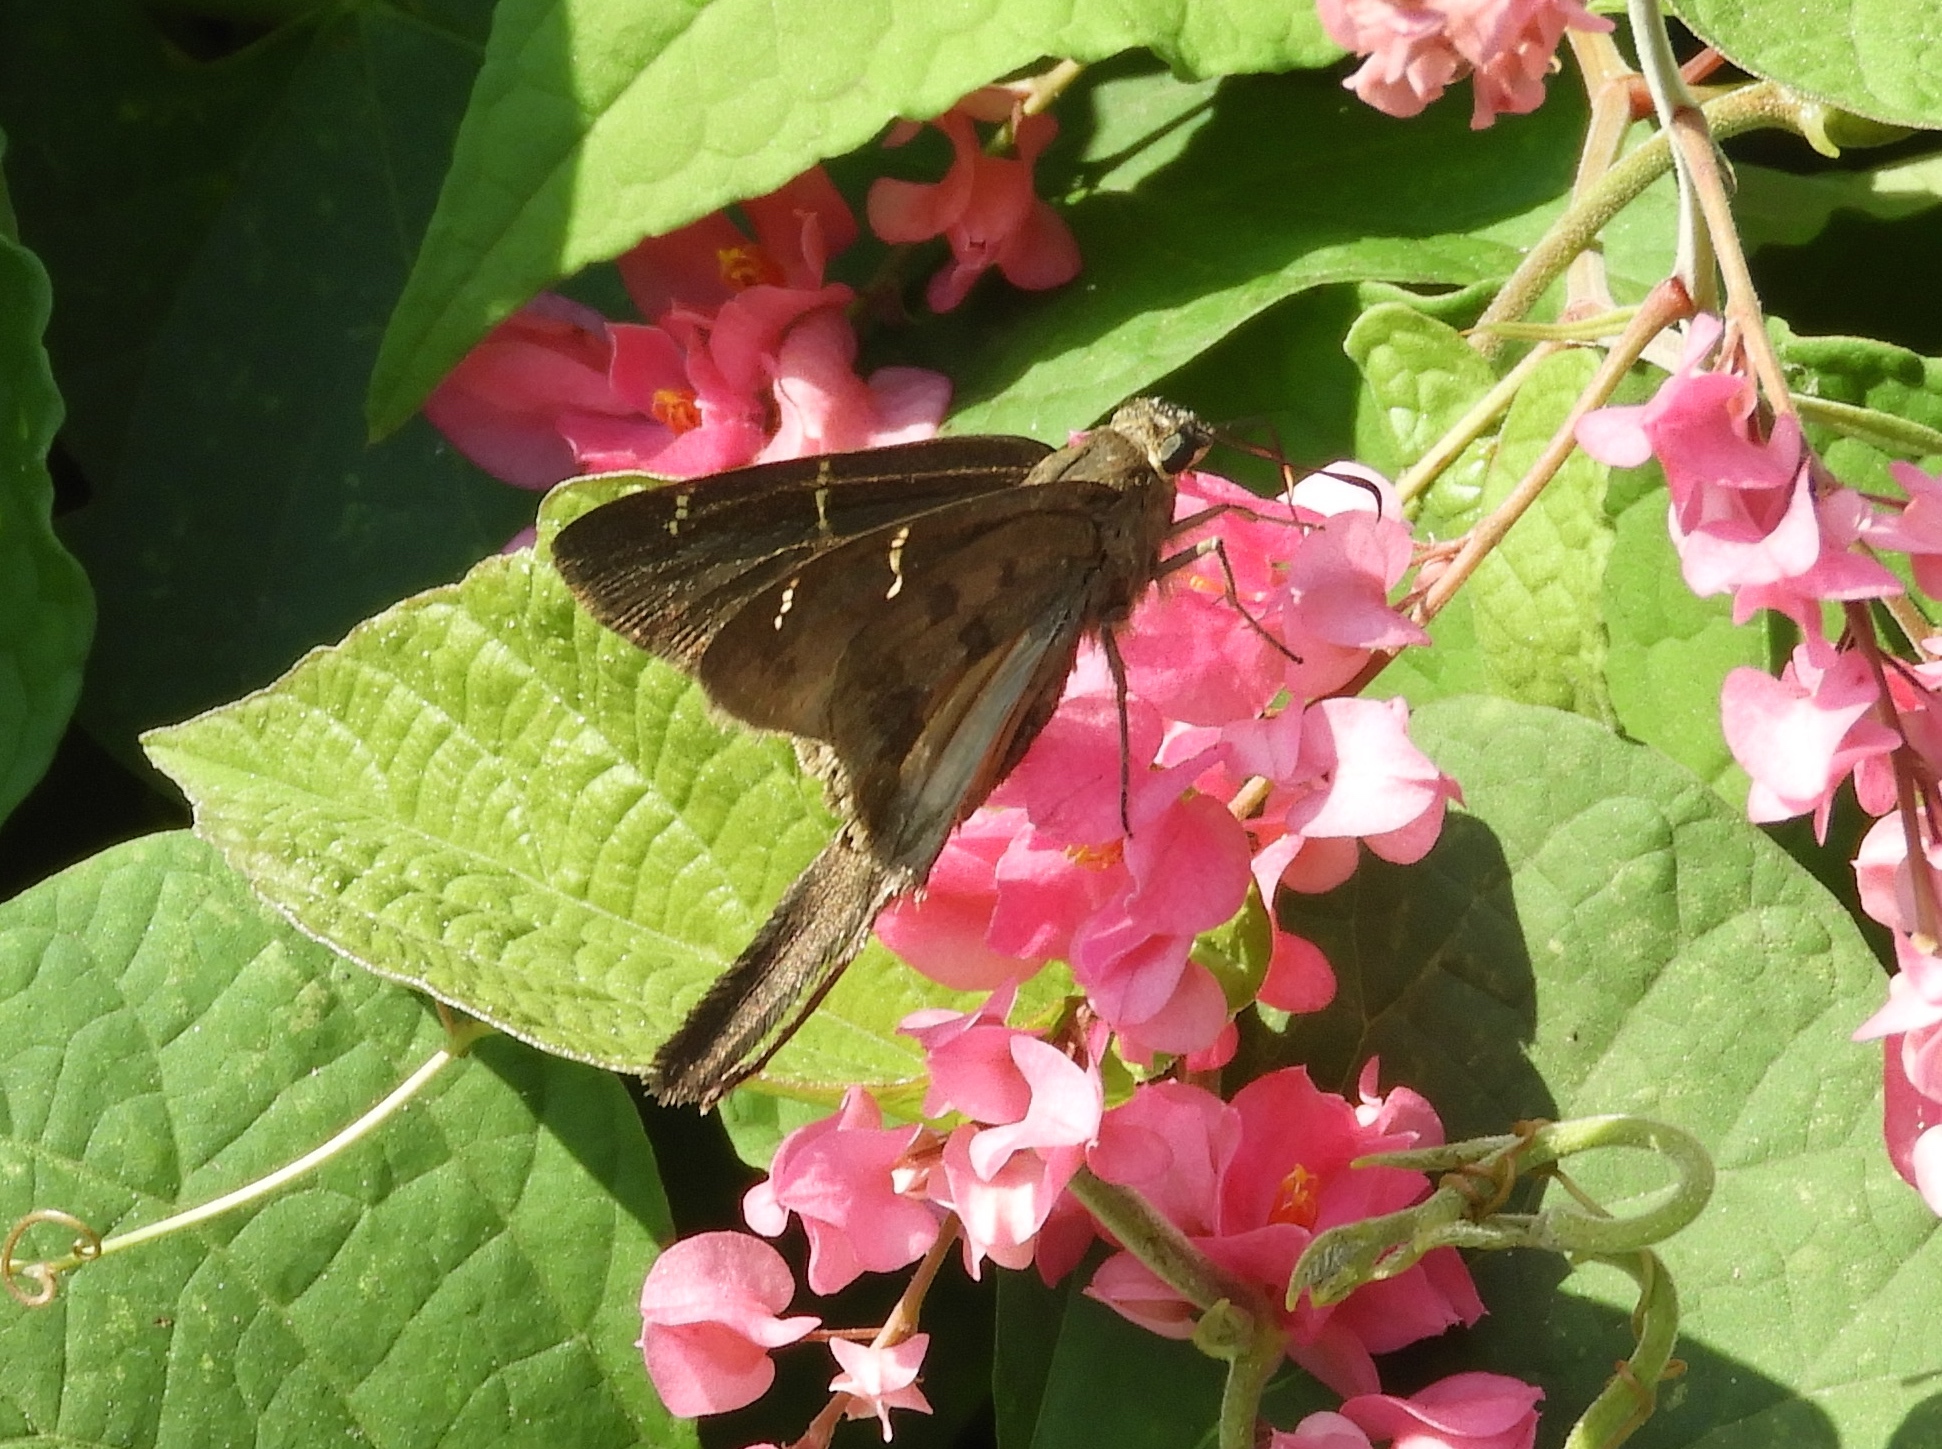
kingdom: Animalia
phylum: Arthropoda
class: Insecta
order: Lepidoptera
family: Hesperiidae
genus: Urbanus
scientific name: Urbanus procne
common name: Brown longtail
